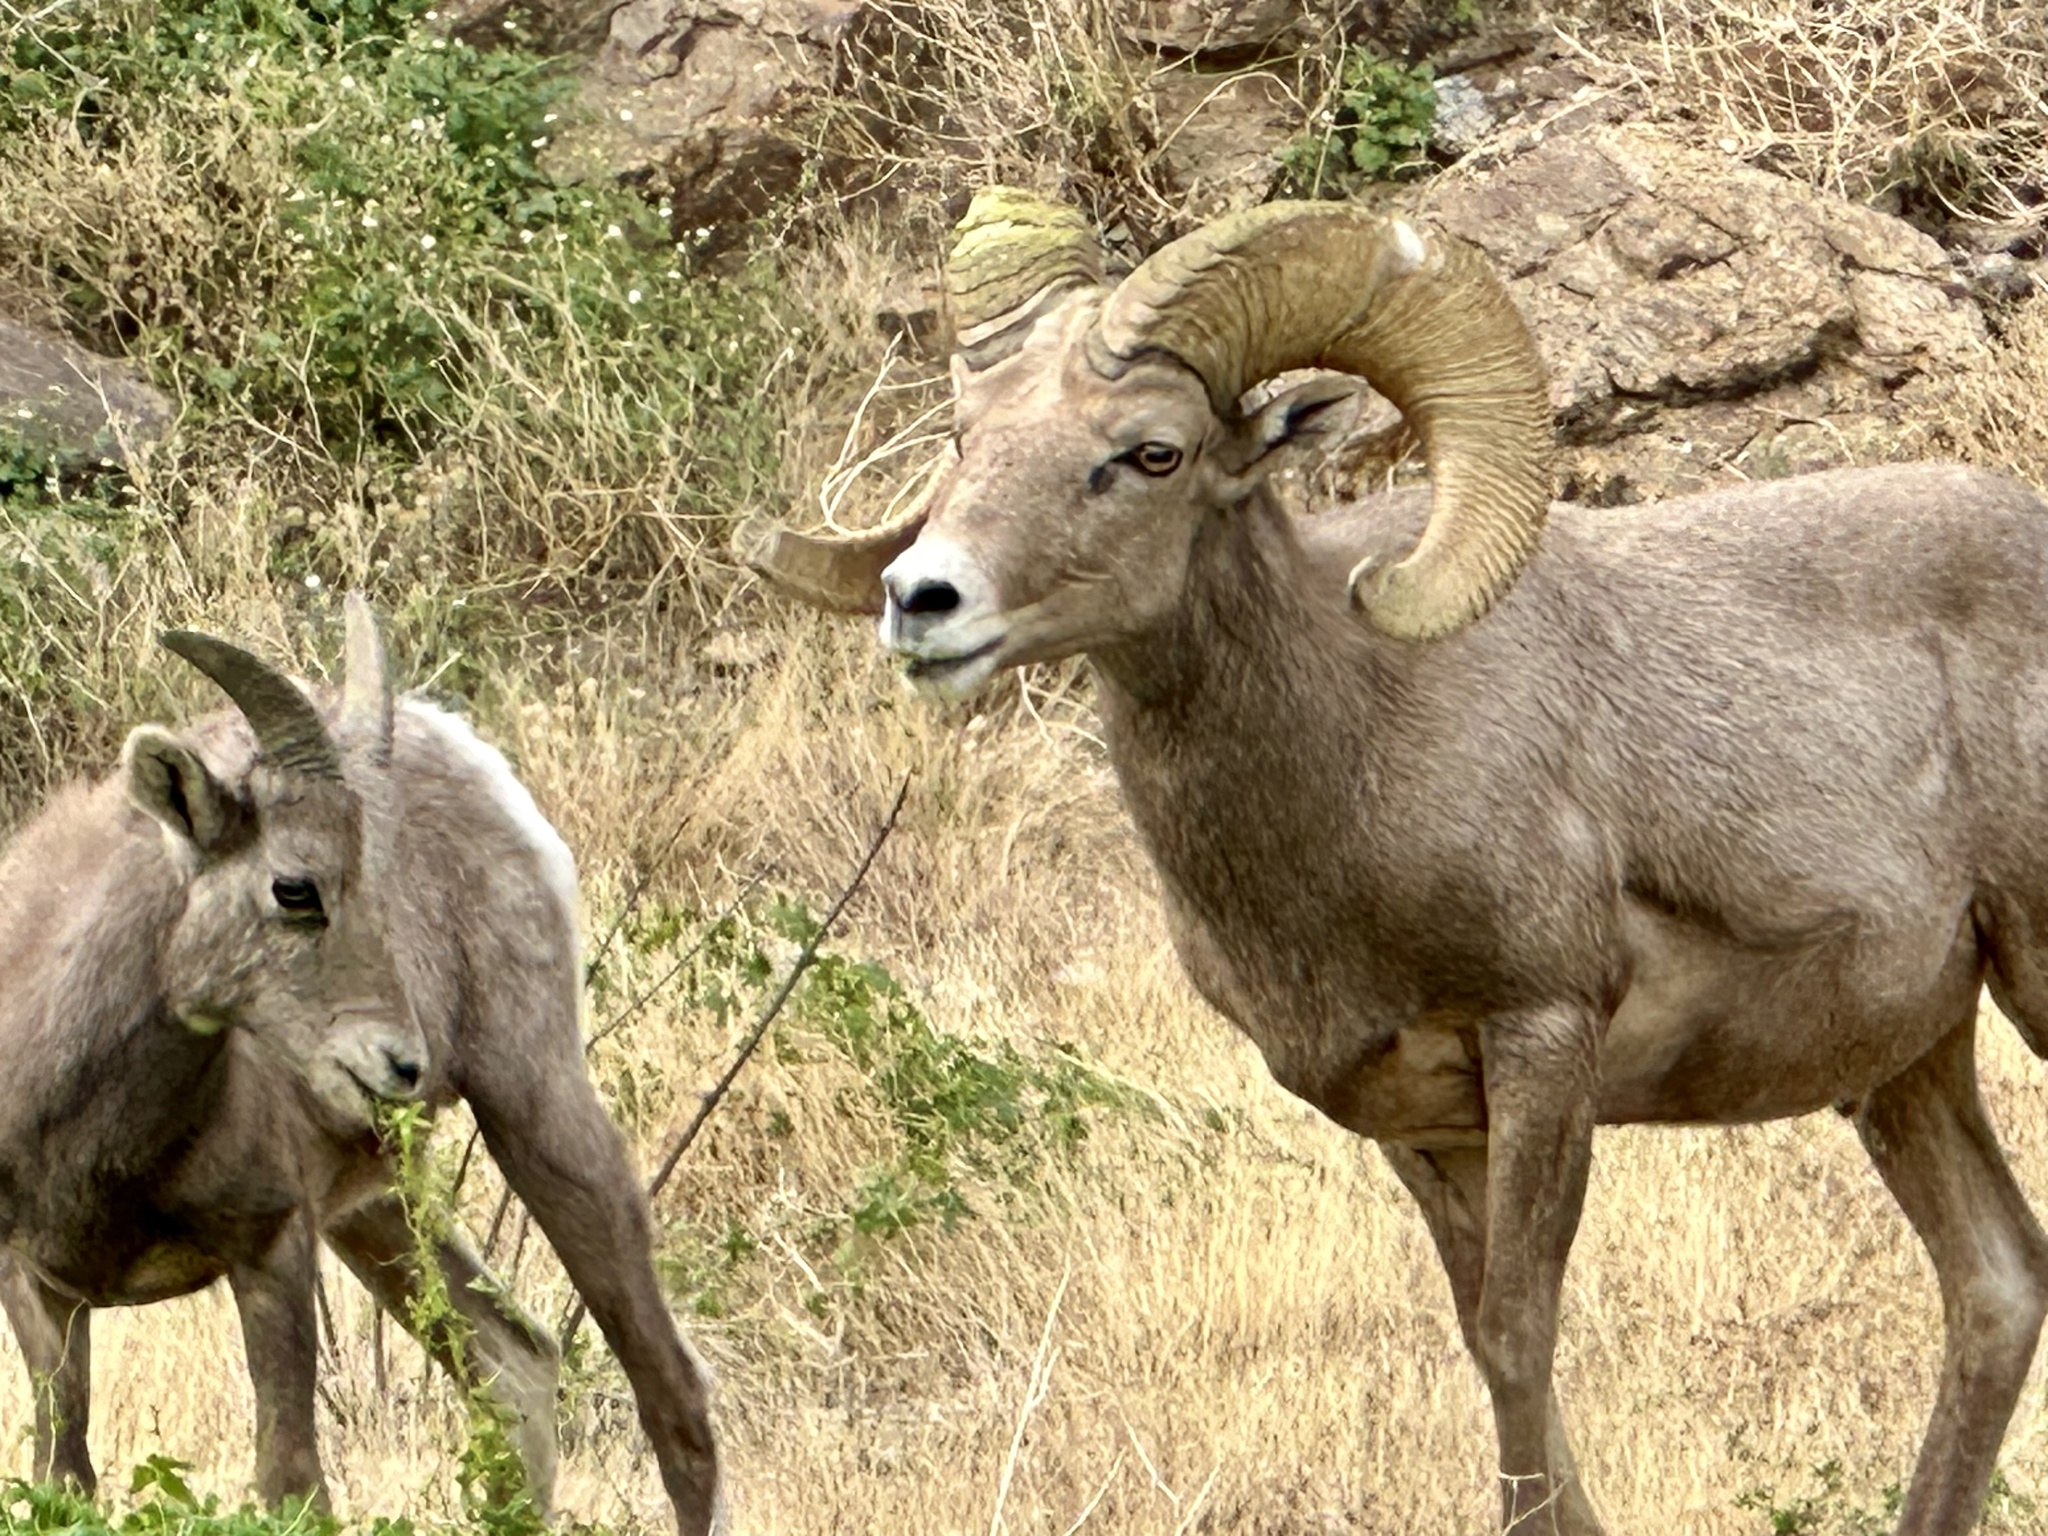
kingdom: Animalia
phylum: Chordata
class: Mammalia
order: Artiodactyla
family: Bovidae
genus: Ovis
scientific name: Ovis canadensis
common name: Bighorn sheep
